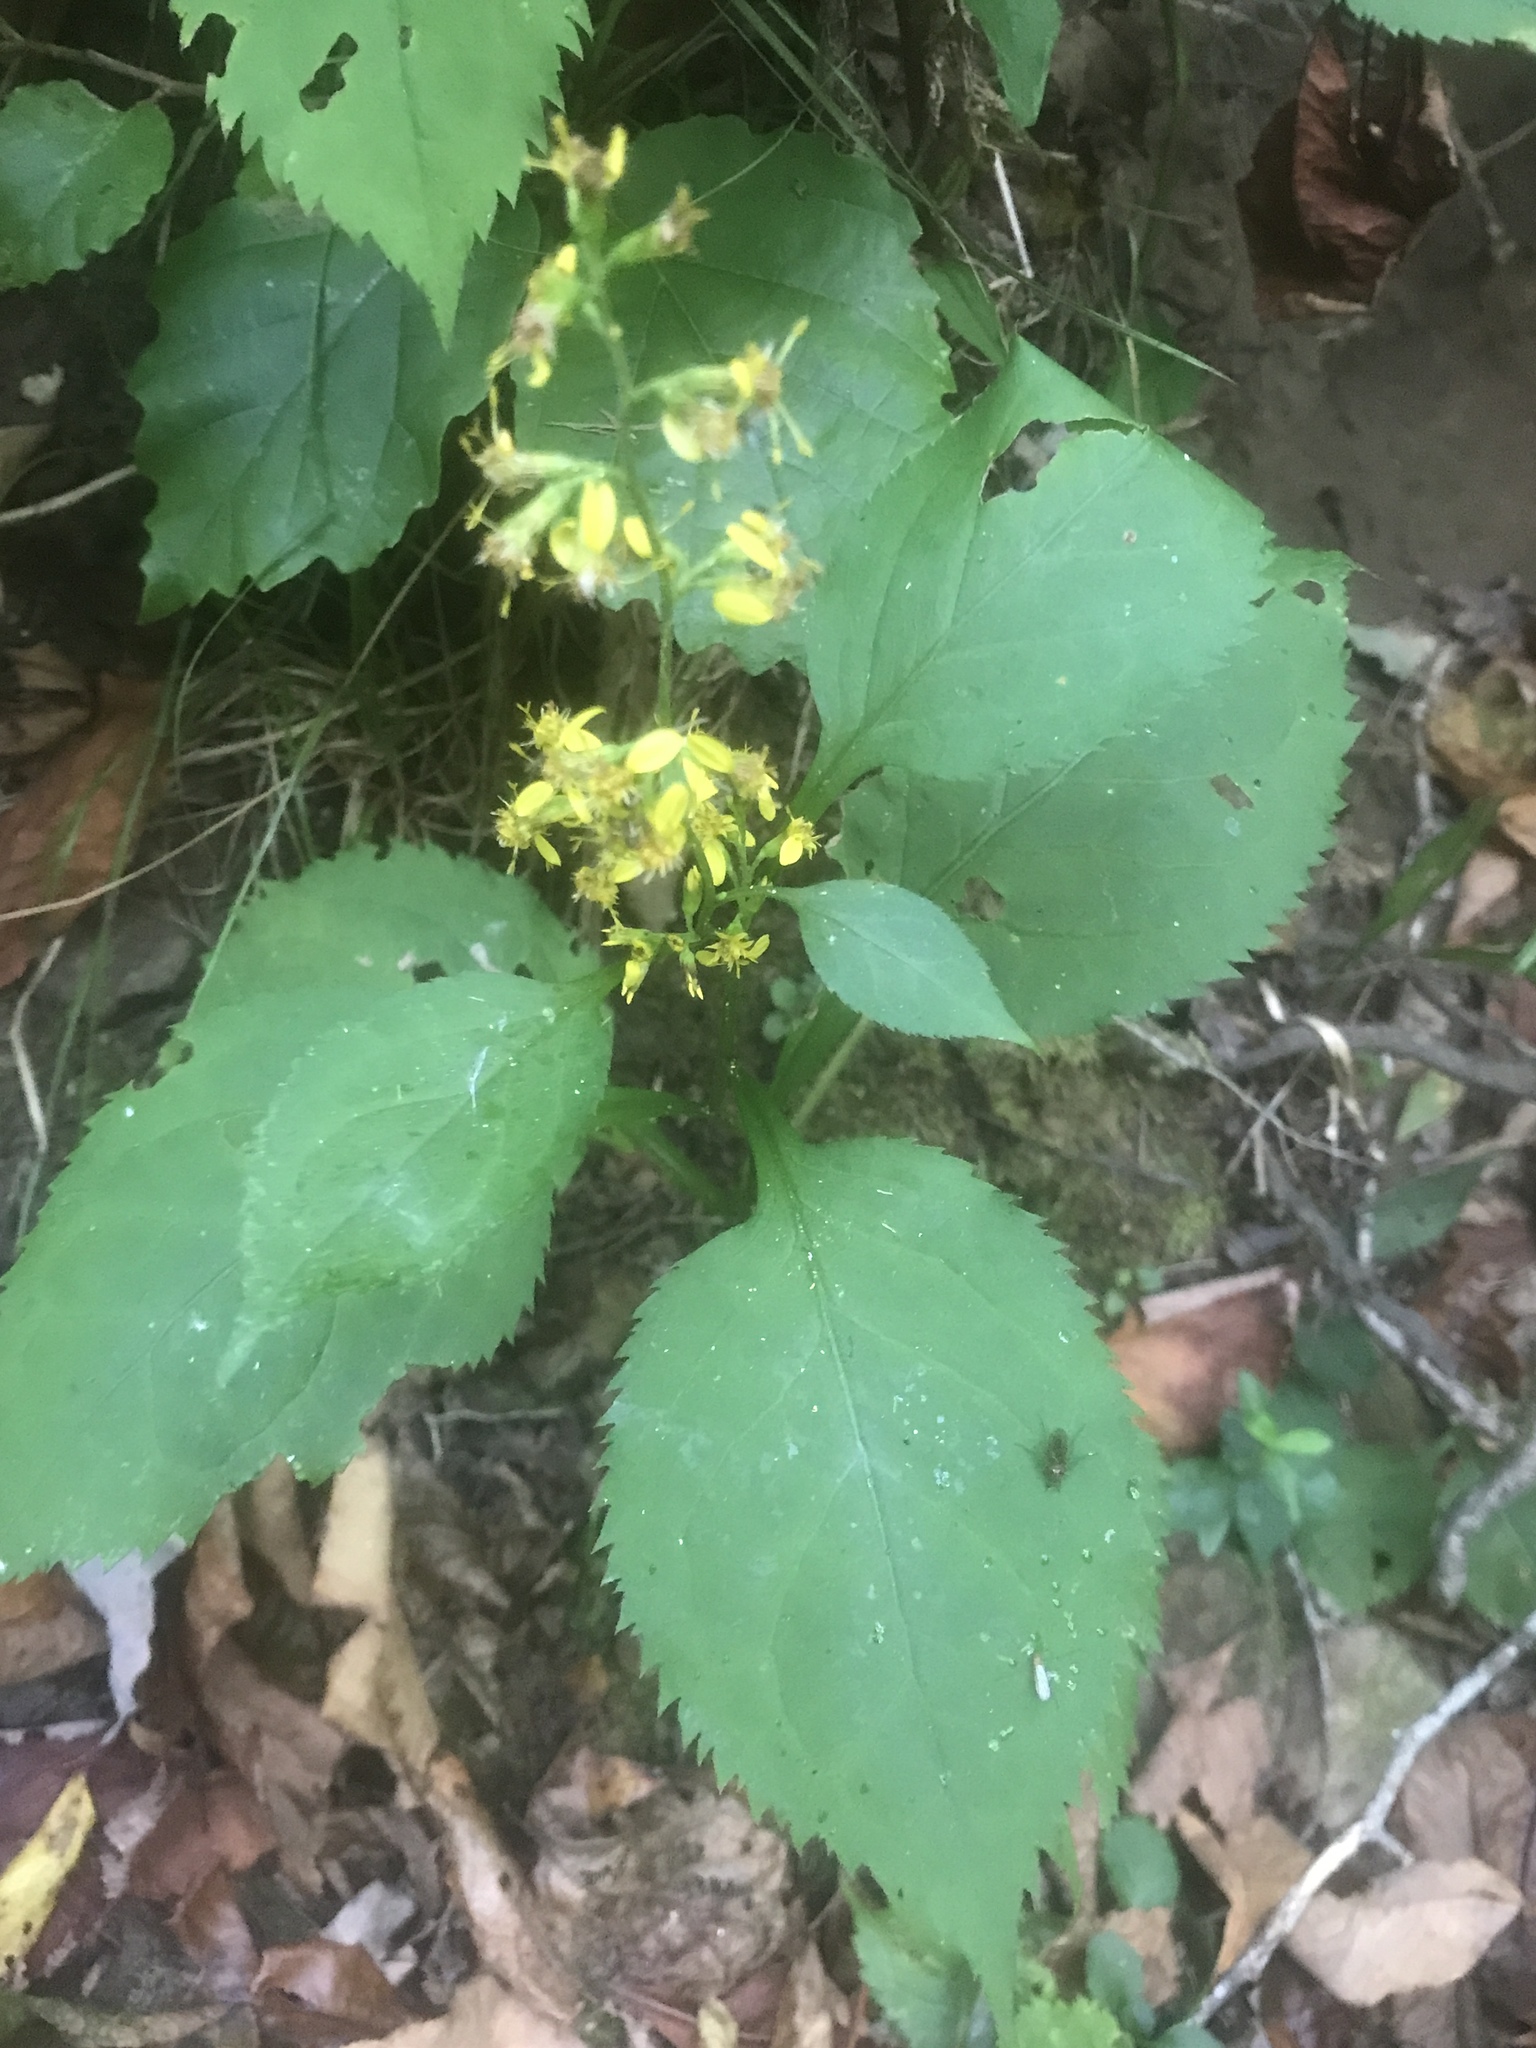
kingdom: Plantae
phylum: Tracheophyta
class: Magnoliopsida
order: Asterales
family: Asteraceae
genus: Solidago
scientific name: Solidago flexicaulis
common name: Zig-zag goldenrod
